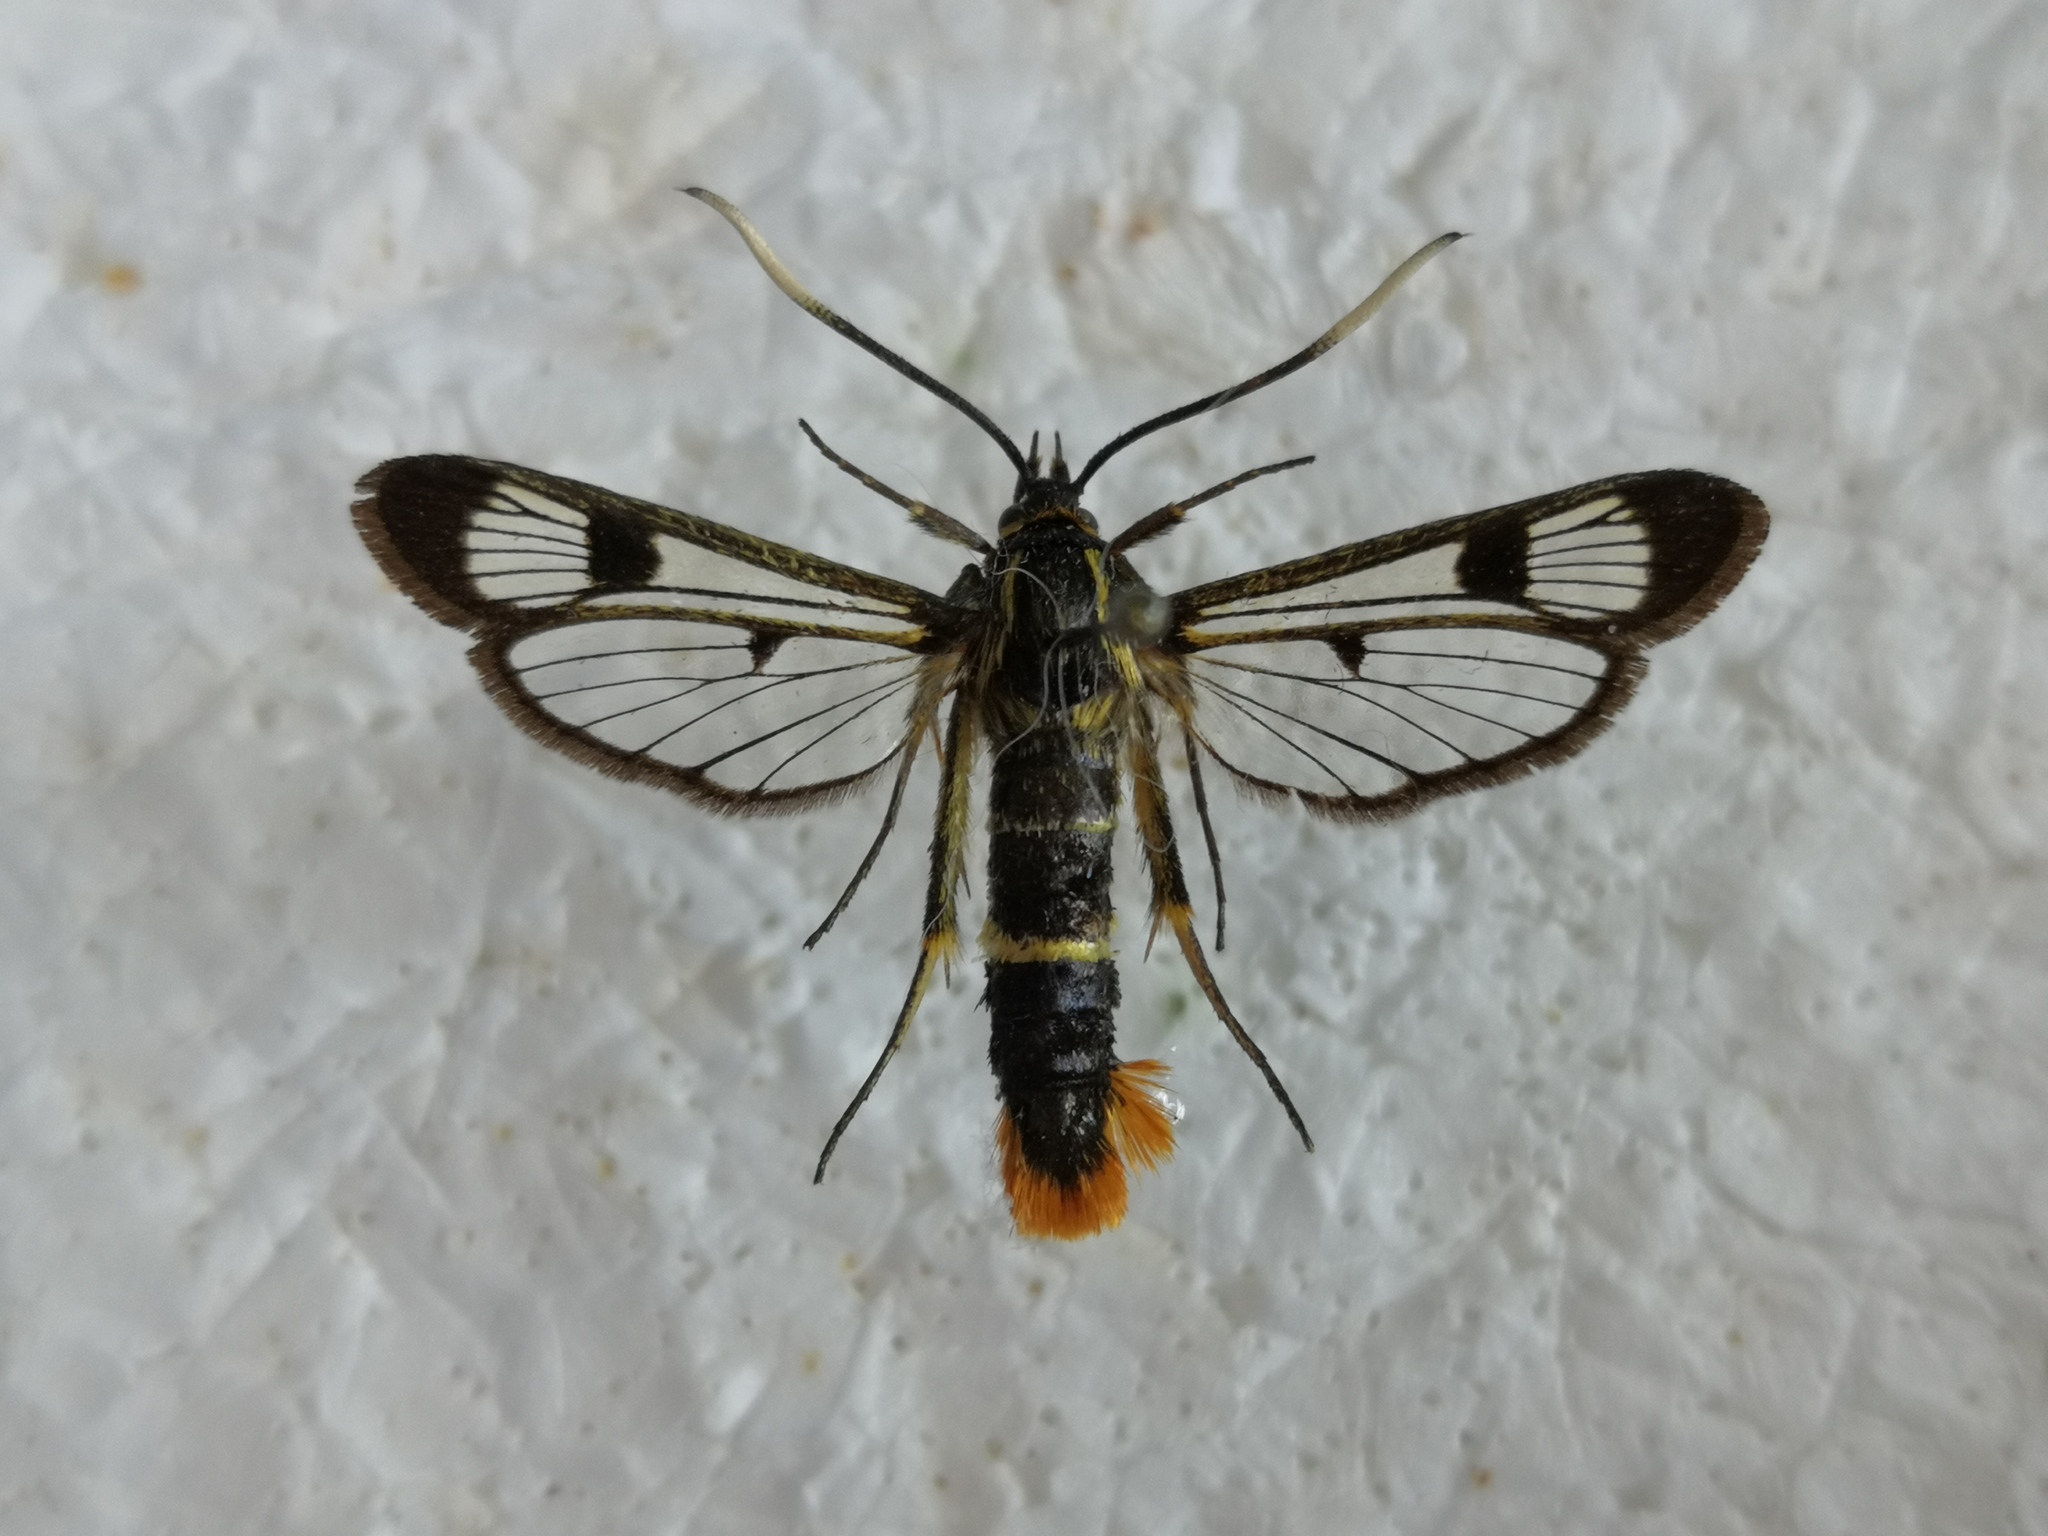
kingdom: Animalia
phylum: Arthropoda
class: Insecta
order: Lepidoptera
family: Sesiidae
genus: Synanthedon
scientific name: Synanthedon scoliaeformis
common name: Welsh clearwing
